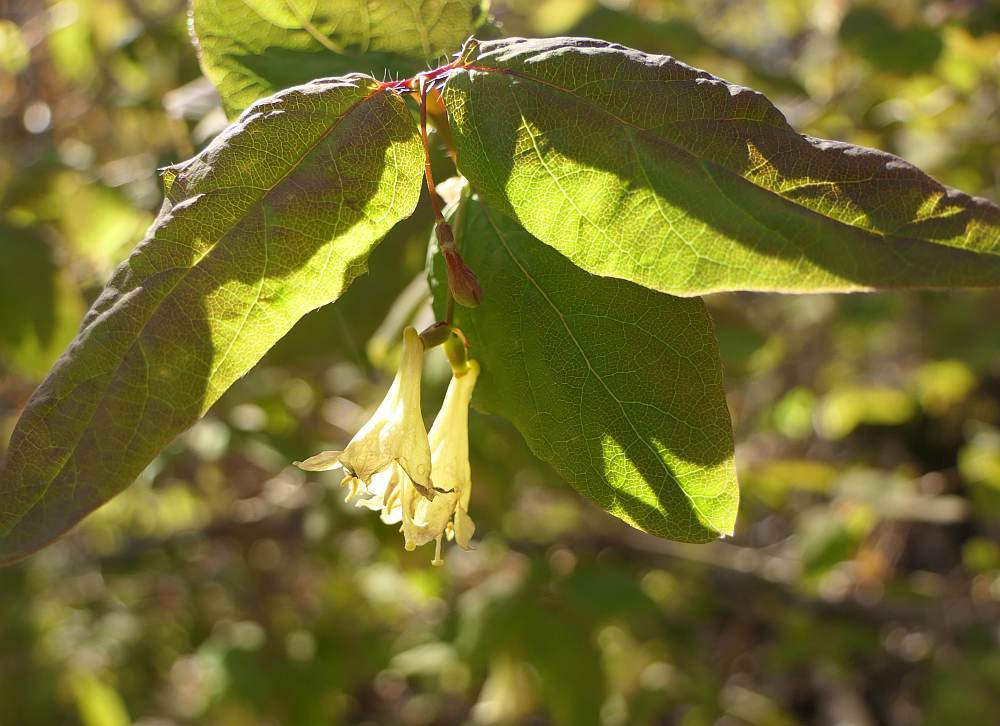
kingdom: Plantae
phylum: Tracheophyta
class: Magnoliopsida
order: Dipsacales
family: Caprifoliaceae
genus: Lonicera
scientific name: Lonicera canadensis
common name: American fly-honeysuckle
